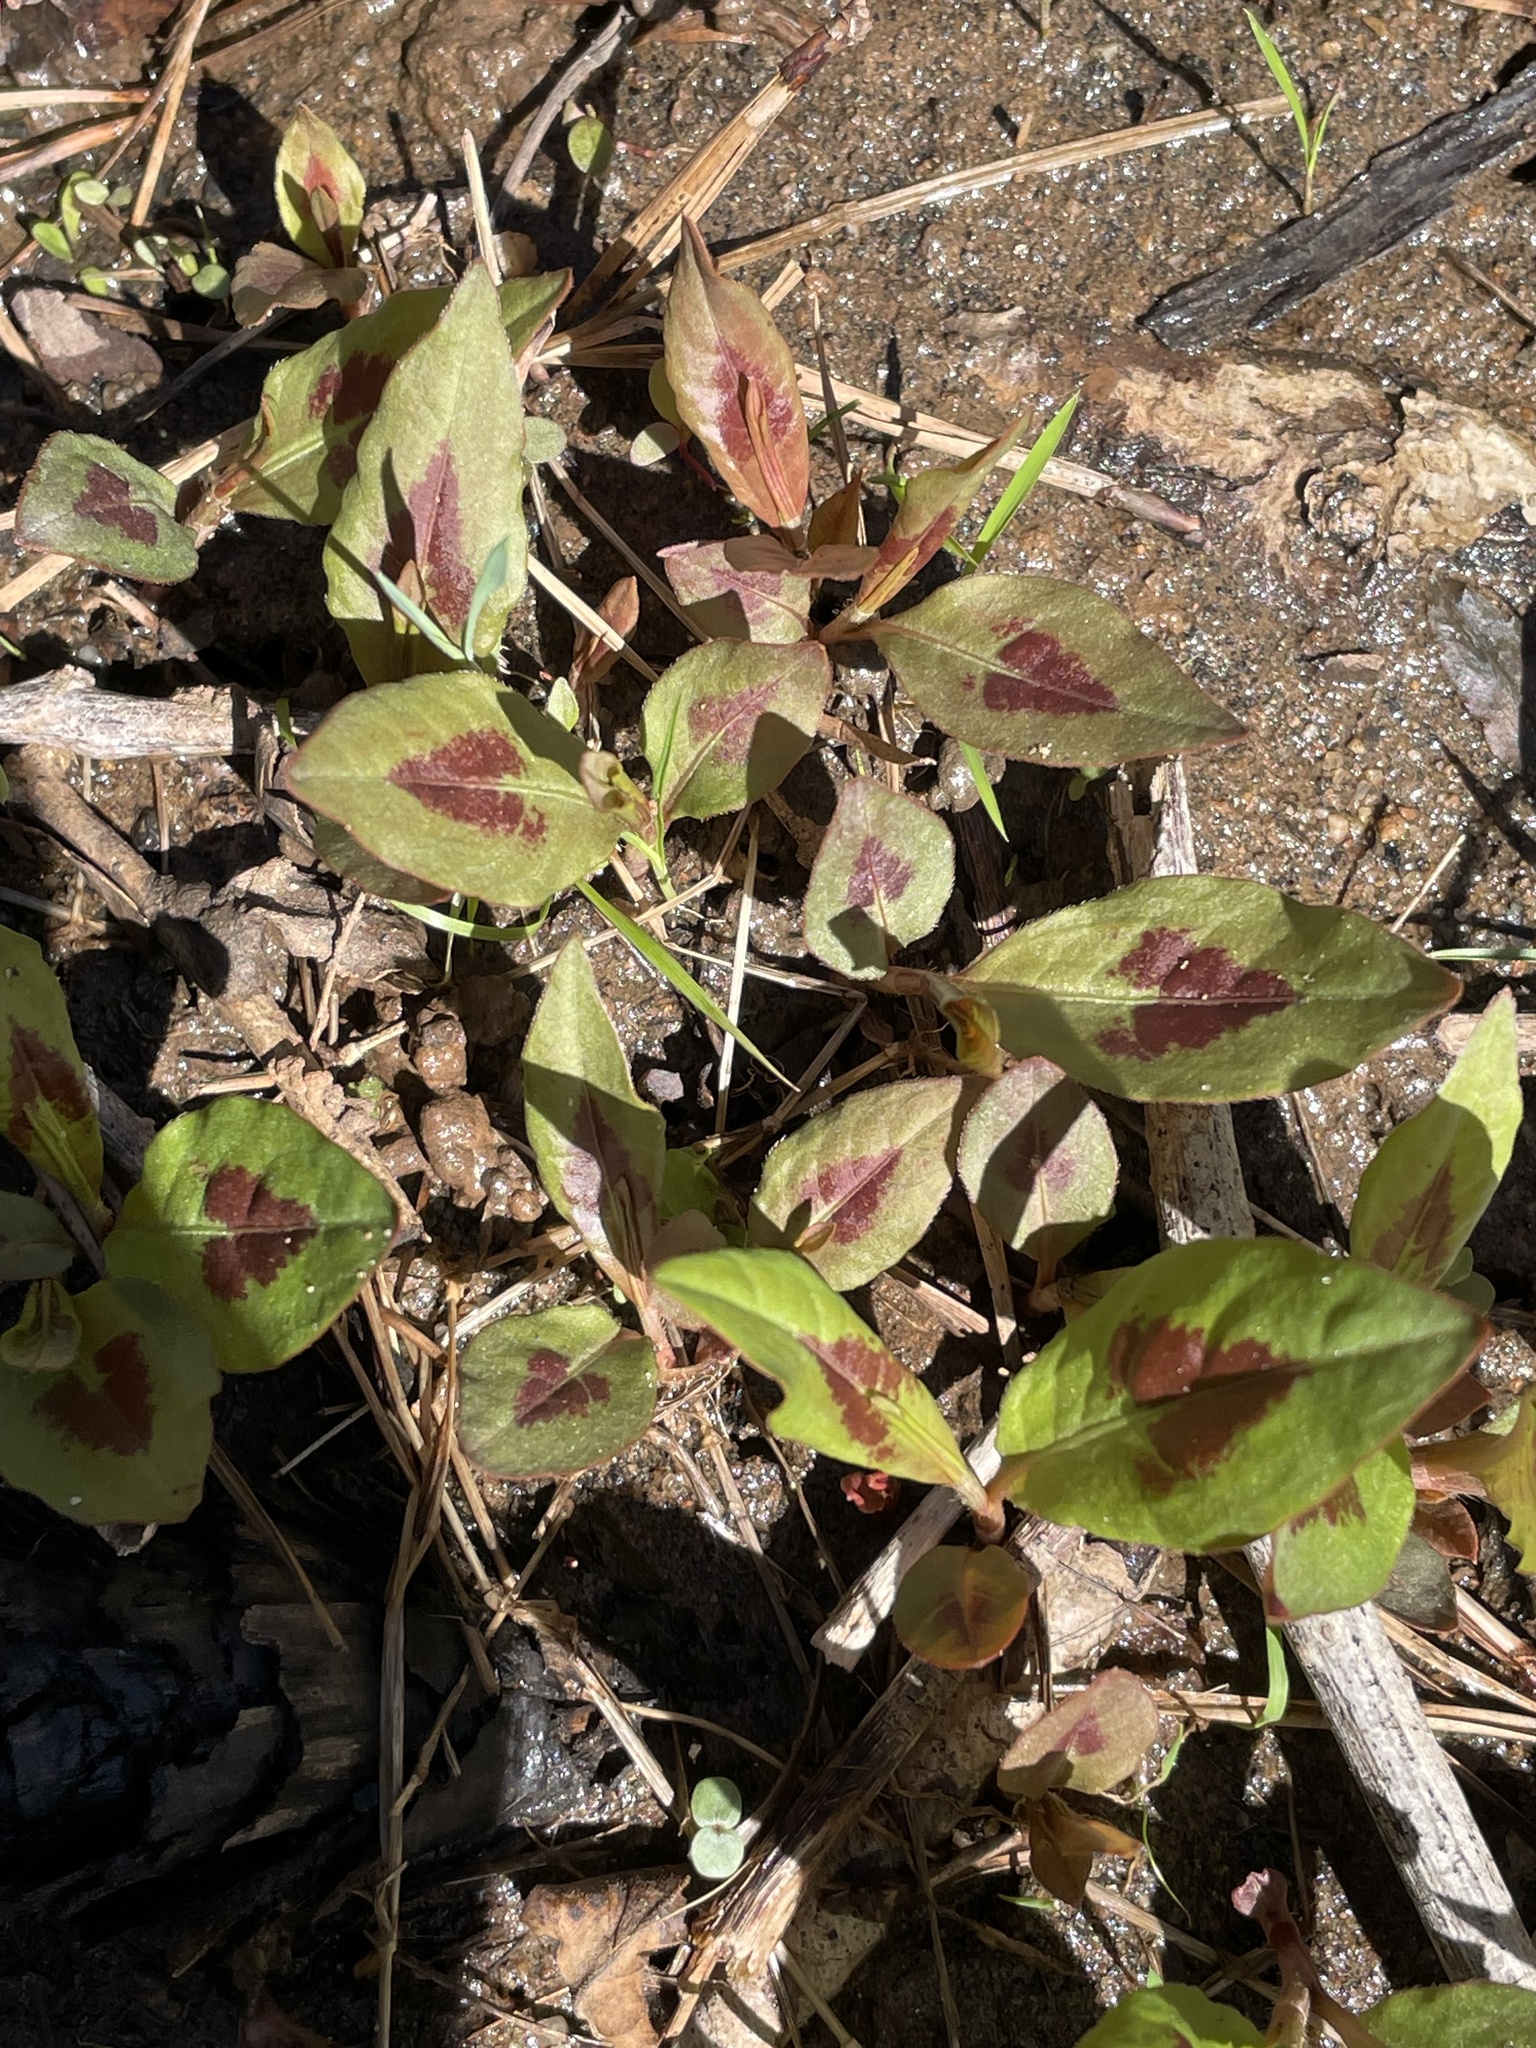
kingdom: Plantae
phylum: Tracheophyta
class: Magnoliopsida
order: Caryophyllales
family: Polygonaceae
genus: Persicaria
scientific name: Persicaria virginiana
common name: Jumpseed
